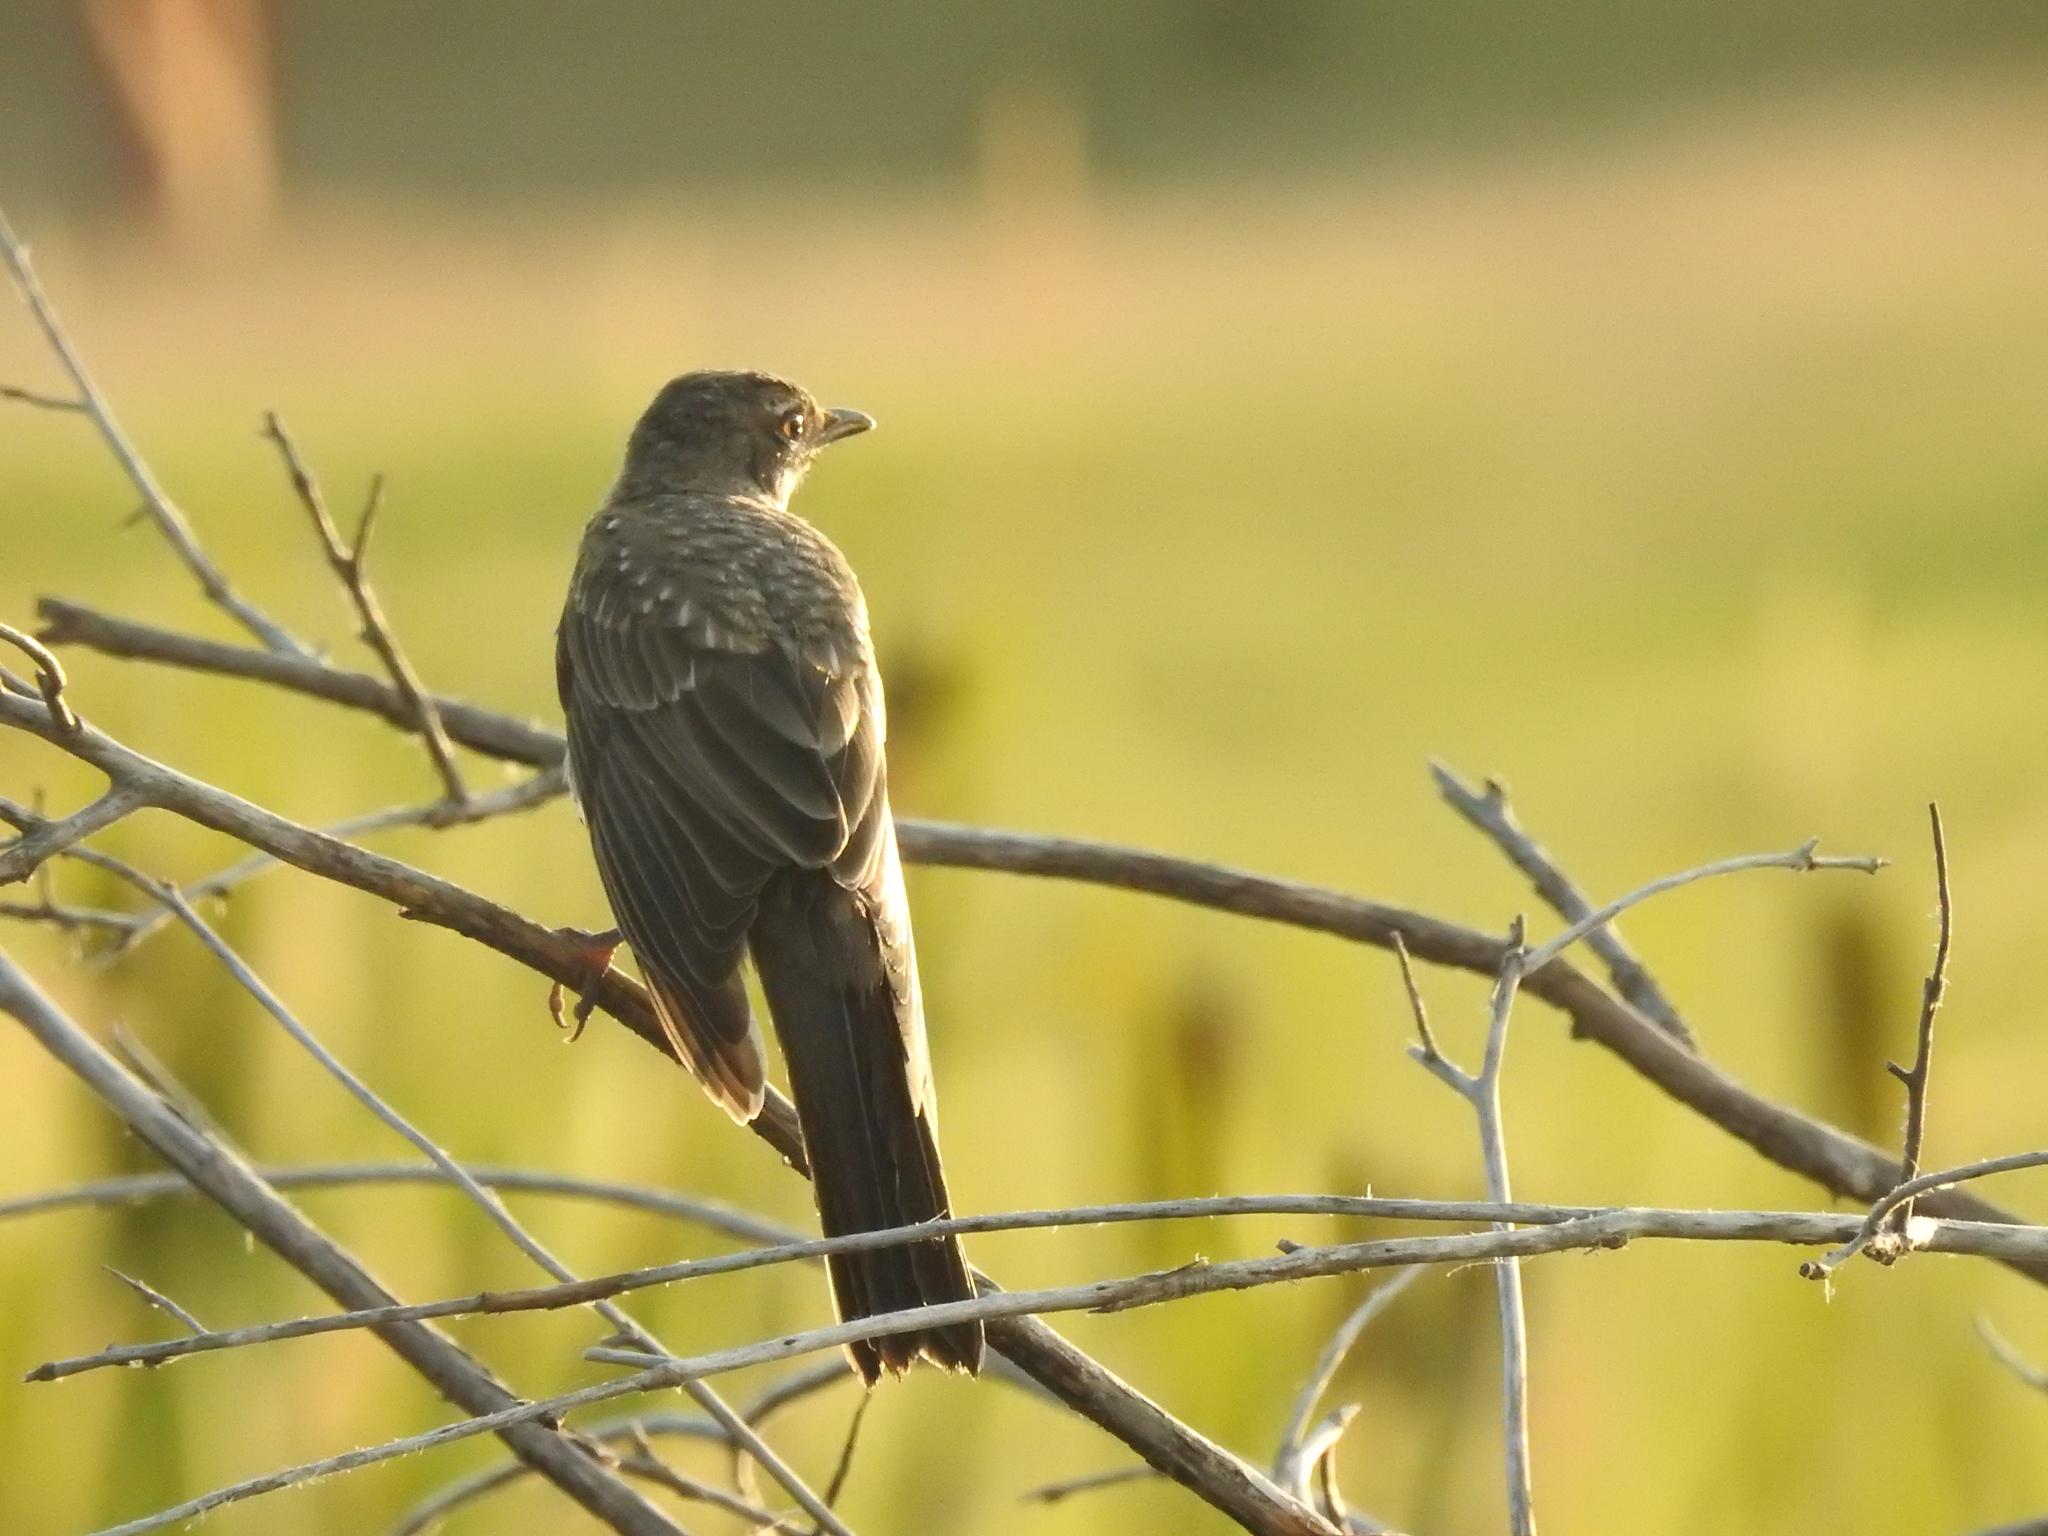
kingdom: Animalia
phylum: Chordata
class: Aves
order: Passeriformes
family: Turdidae
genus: Turdus
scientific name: Turdus migratorius
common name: American robin
